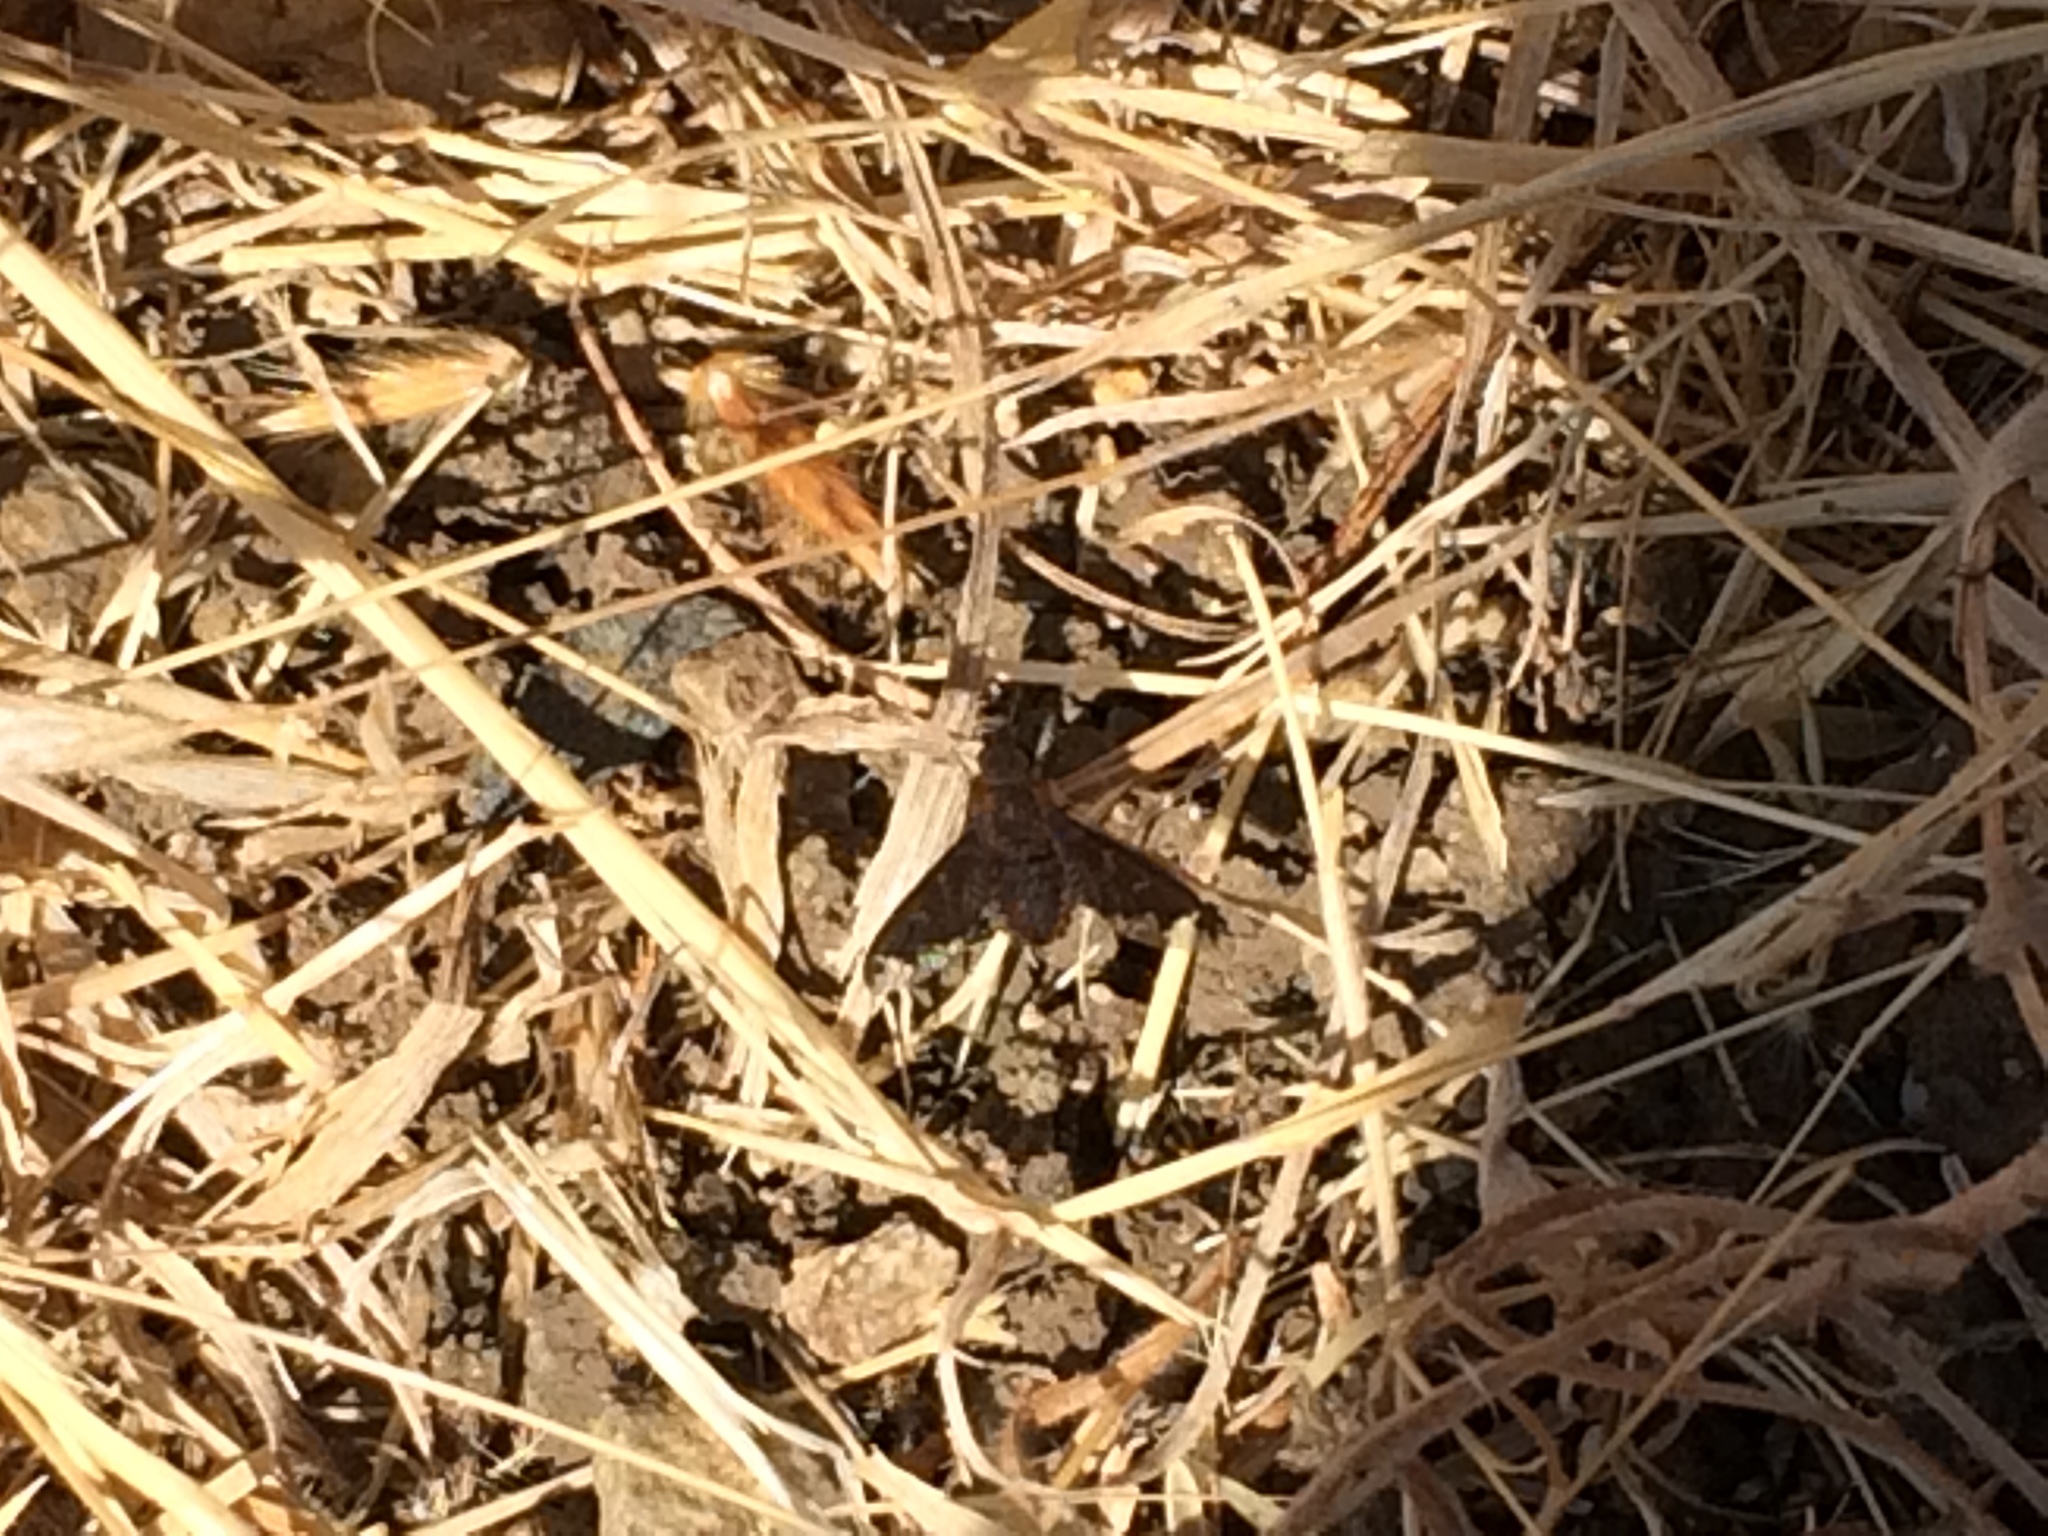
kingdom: Animalia
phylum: Arthropoda
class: Insecta
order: Diptera
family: Bombyliidae
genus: Hemipenthes
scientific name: Hemipenthes sinuosus
